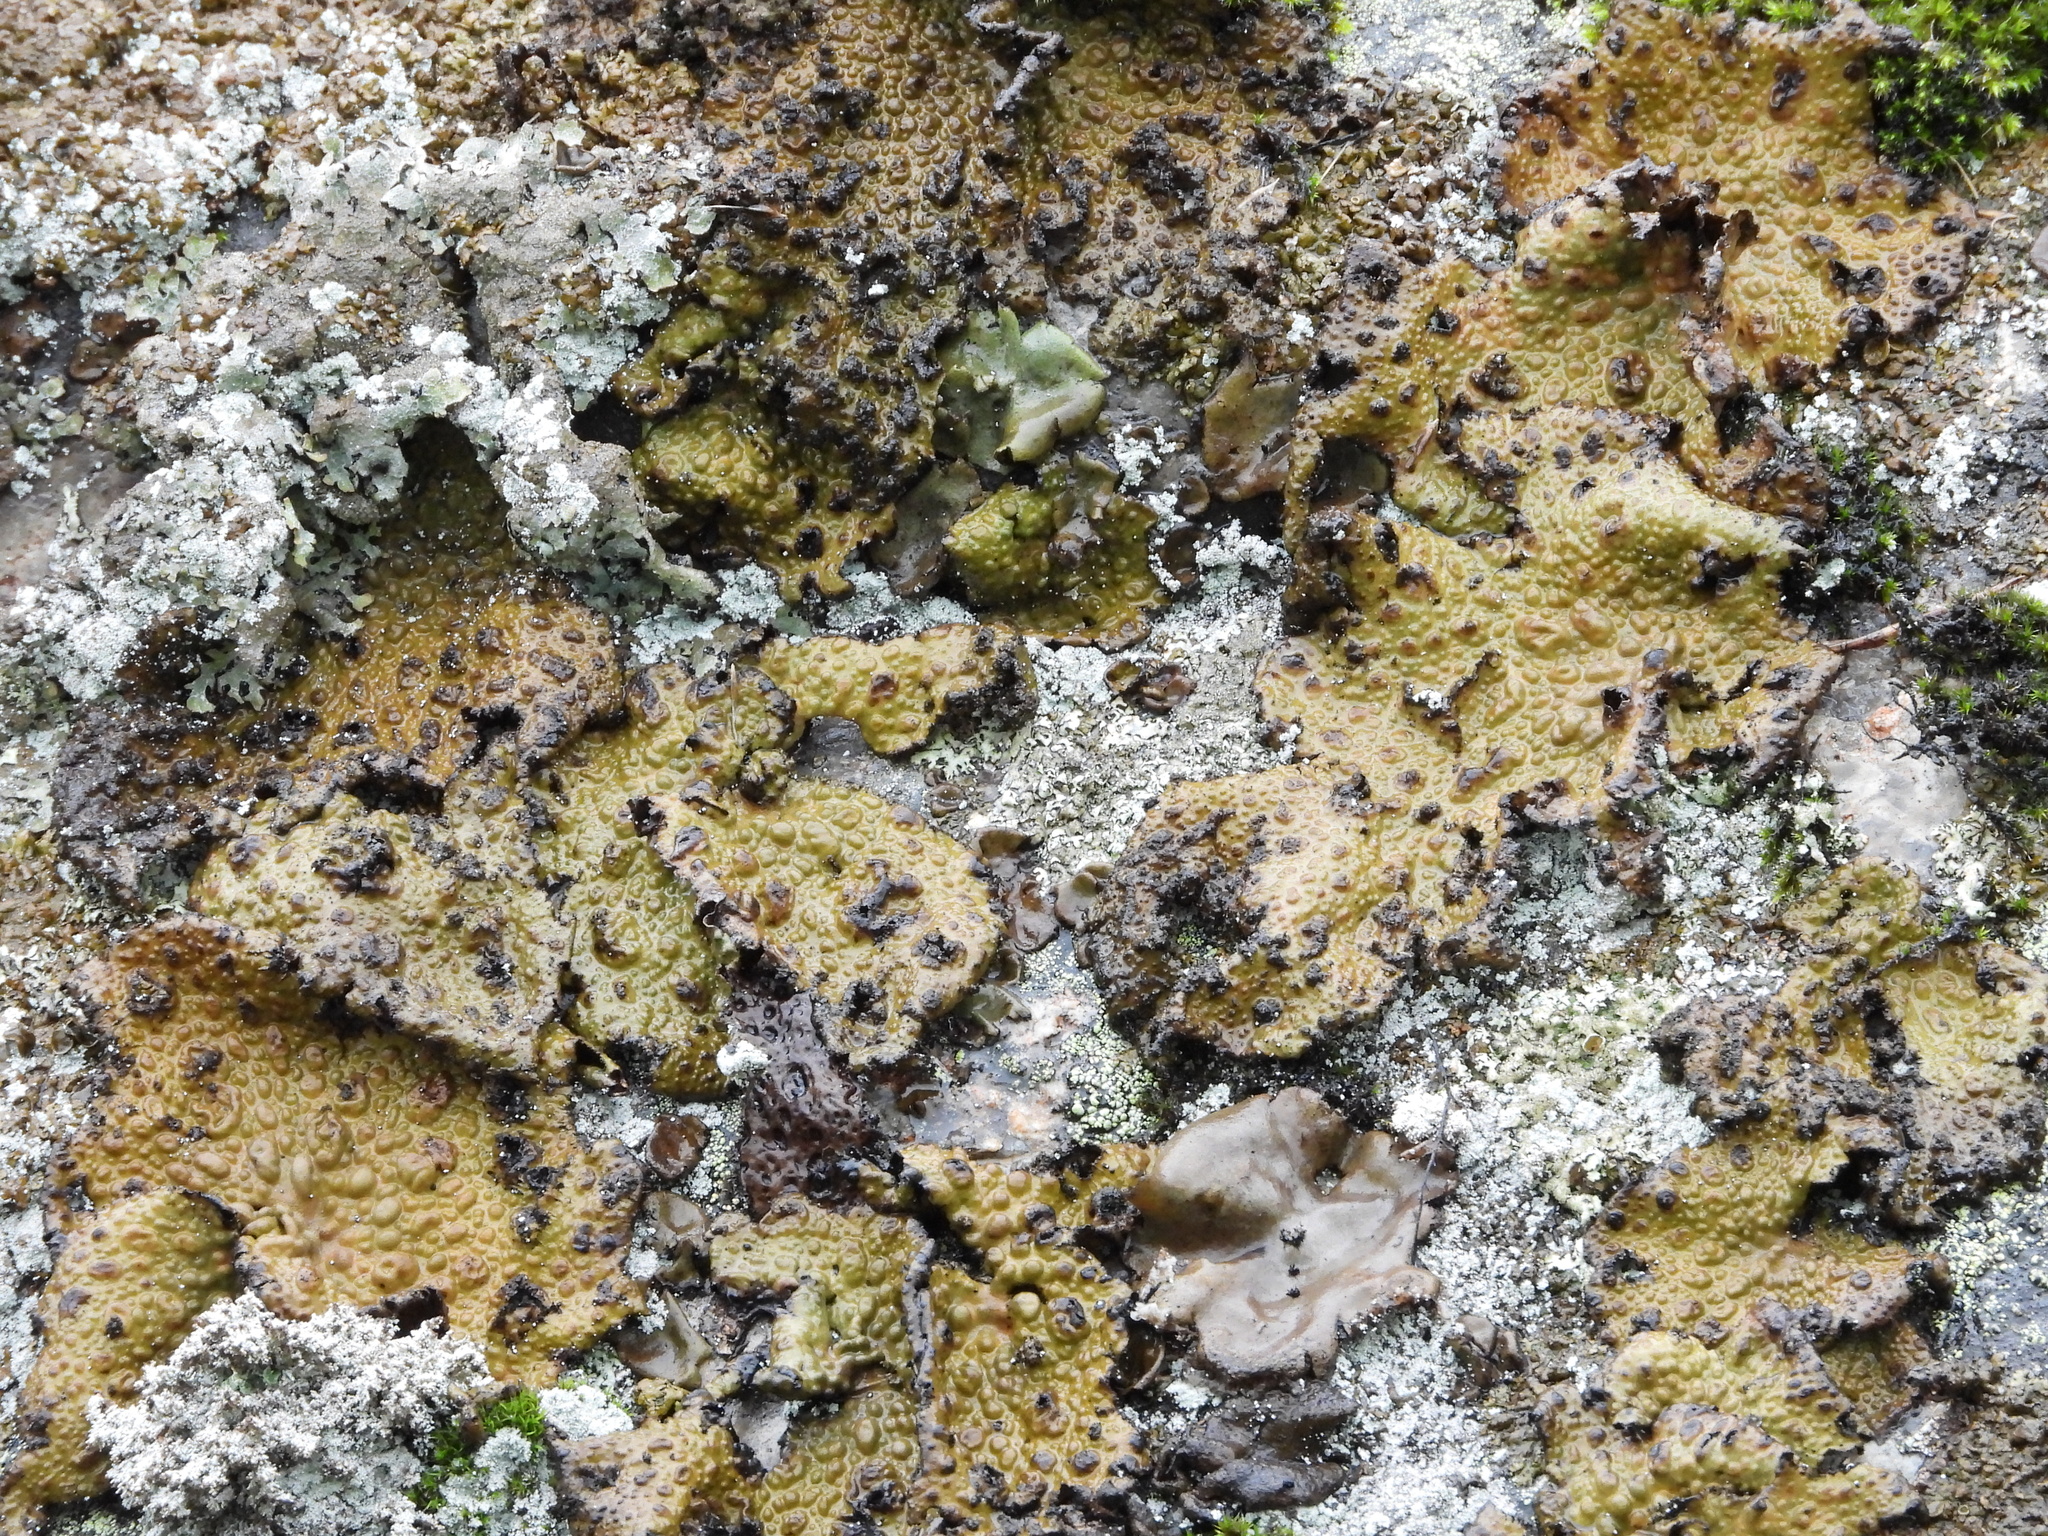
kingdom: Fungi
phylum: Ascomycota
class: Lecanoromycetes
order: Umbilicariales
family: Umbilicariaceae
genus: Lasallia
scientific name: Lasallia pustulata
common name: Blistered toadskin lichen
